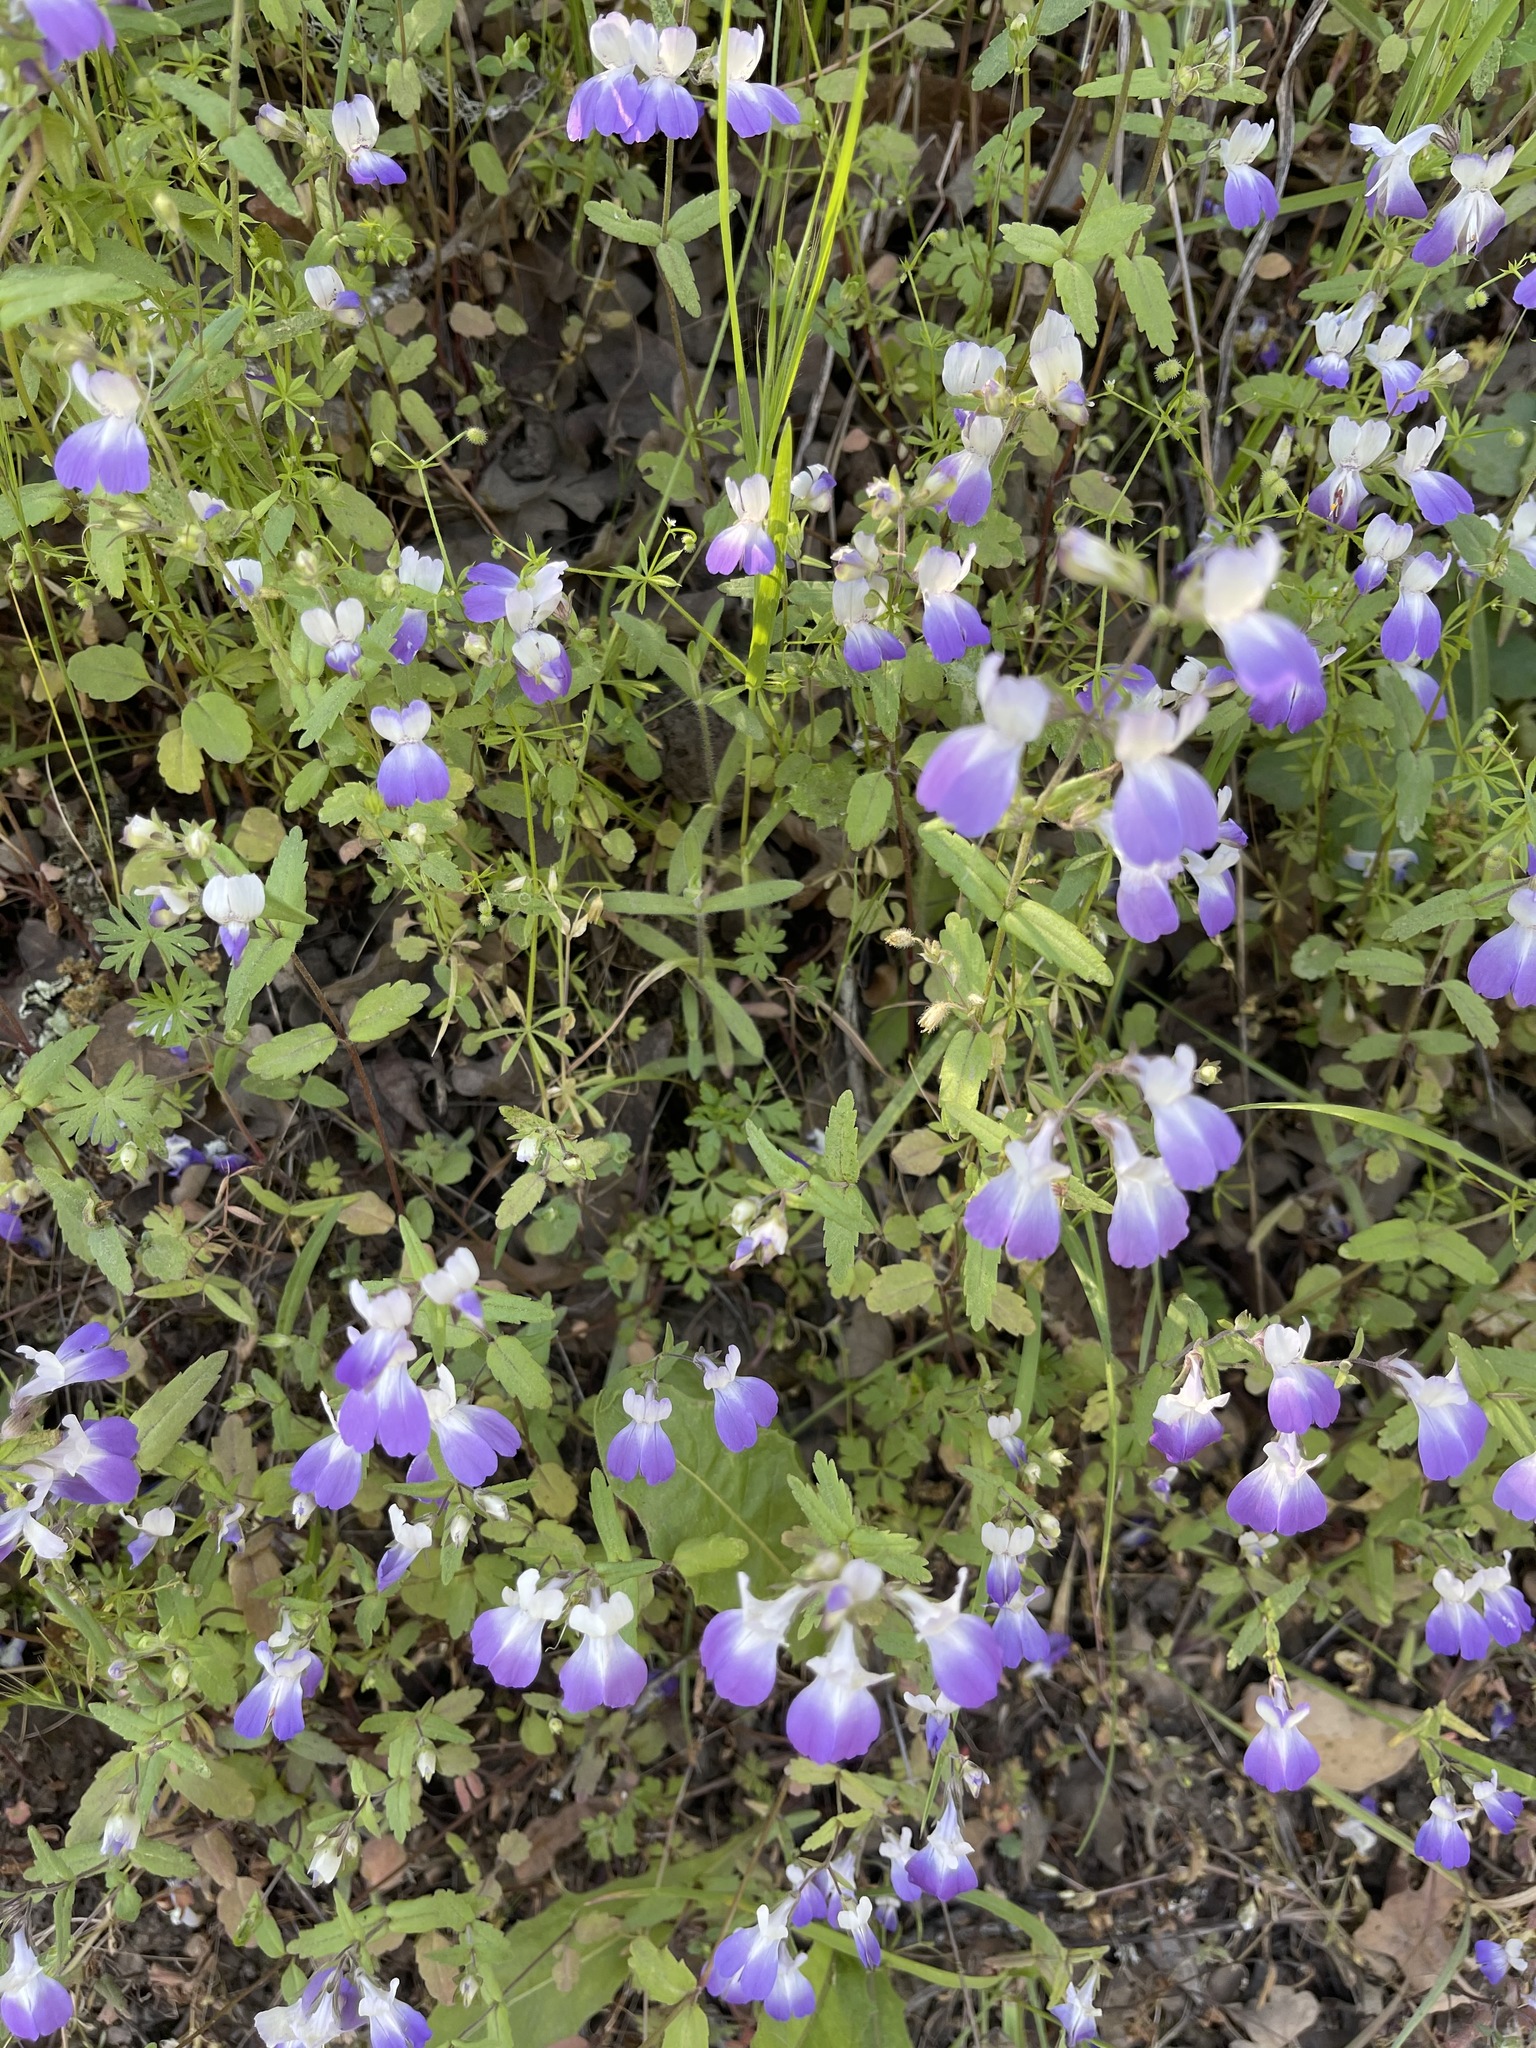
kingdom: Plantae
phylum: Tracheophyta
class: Magnoliopsida
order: Lamiales
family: Plantaginaceae
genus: Collinsia
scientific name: Collinsia multicolor
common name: San francisco collinsia
